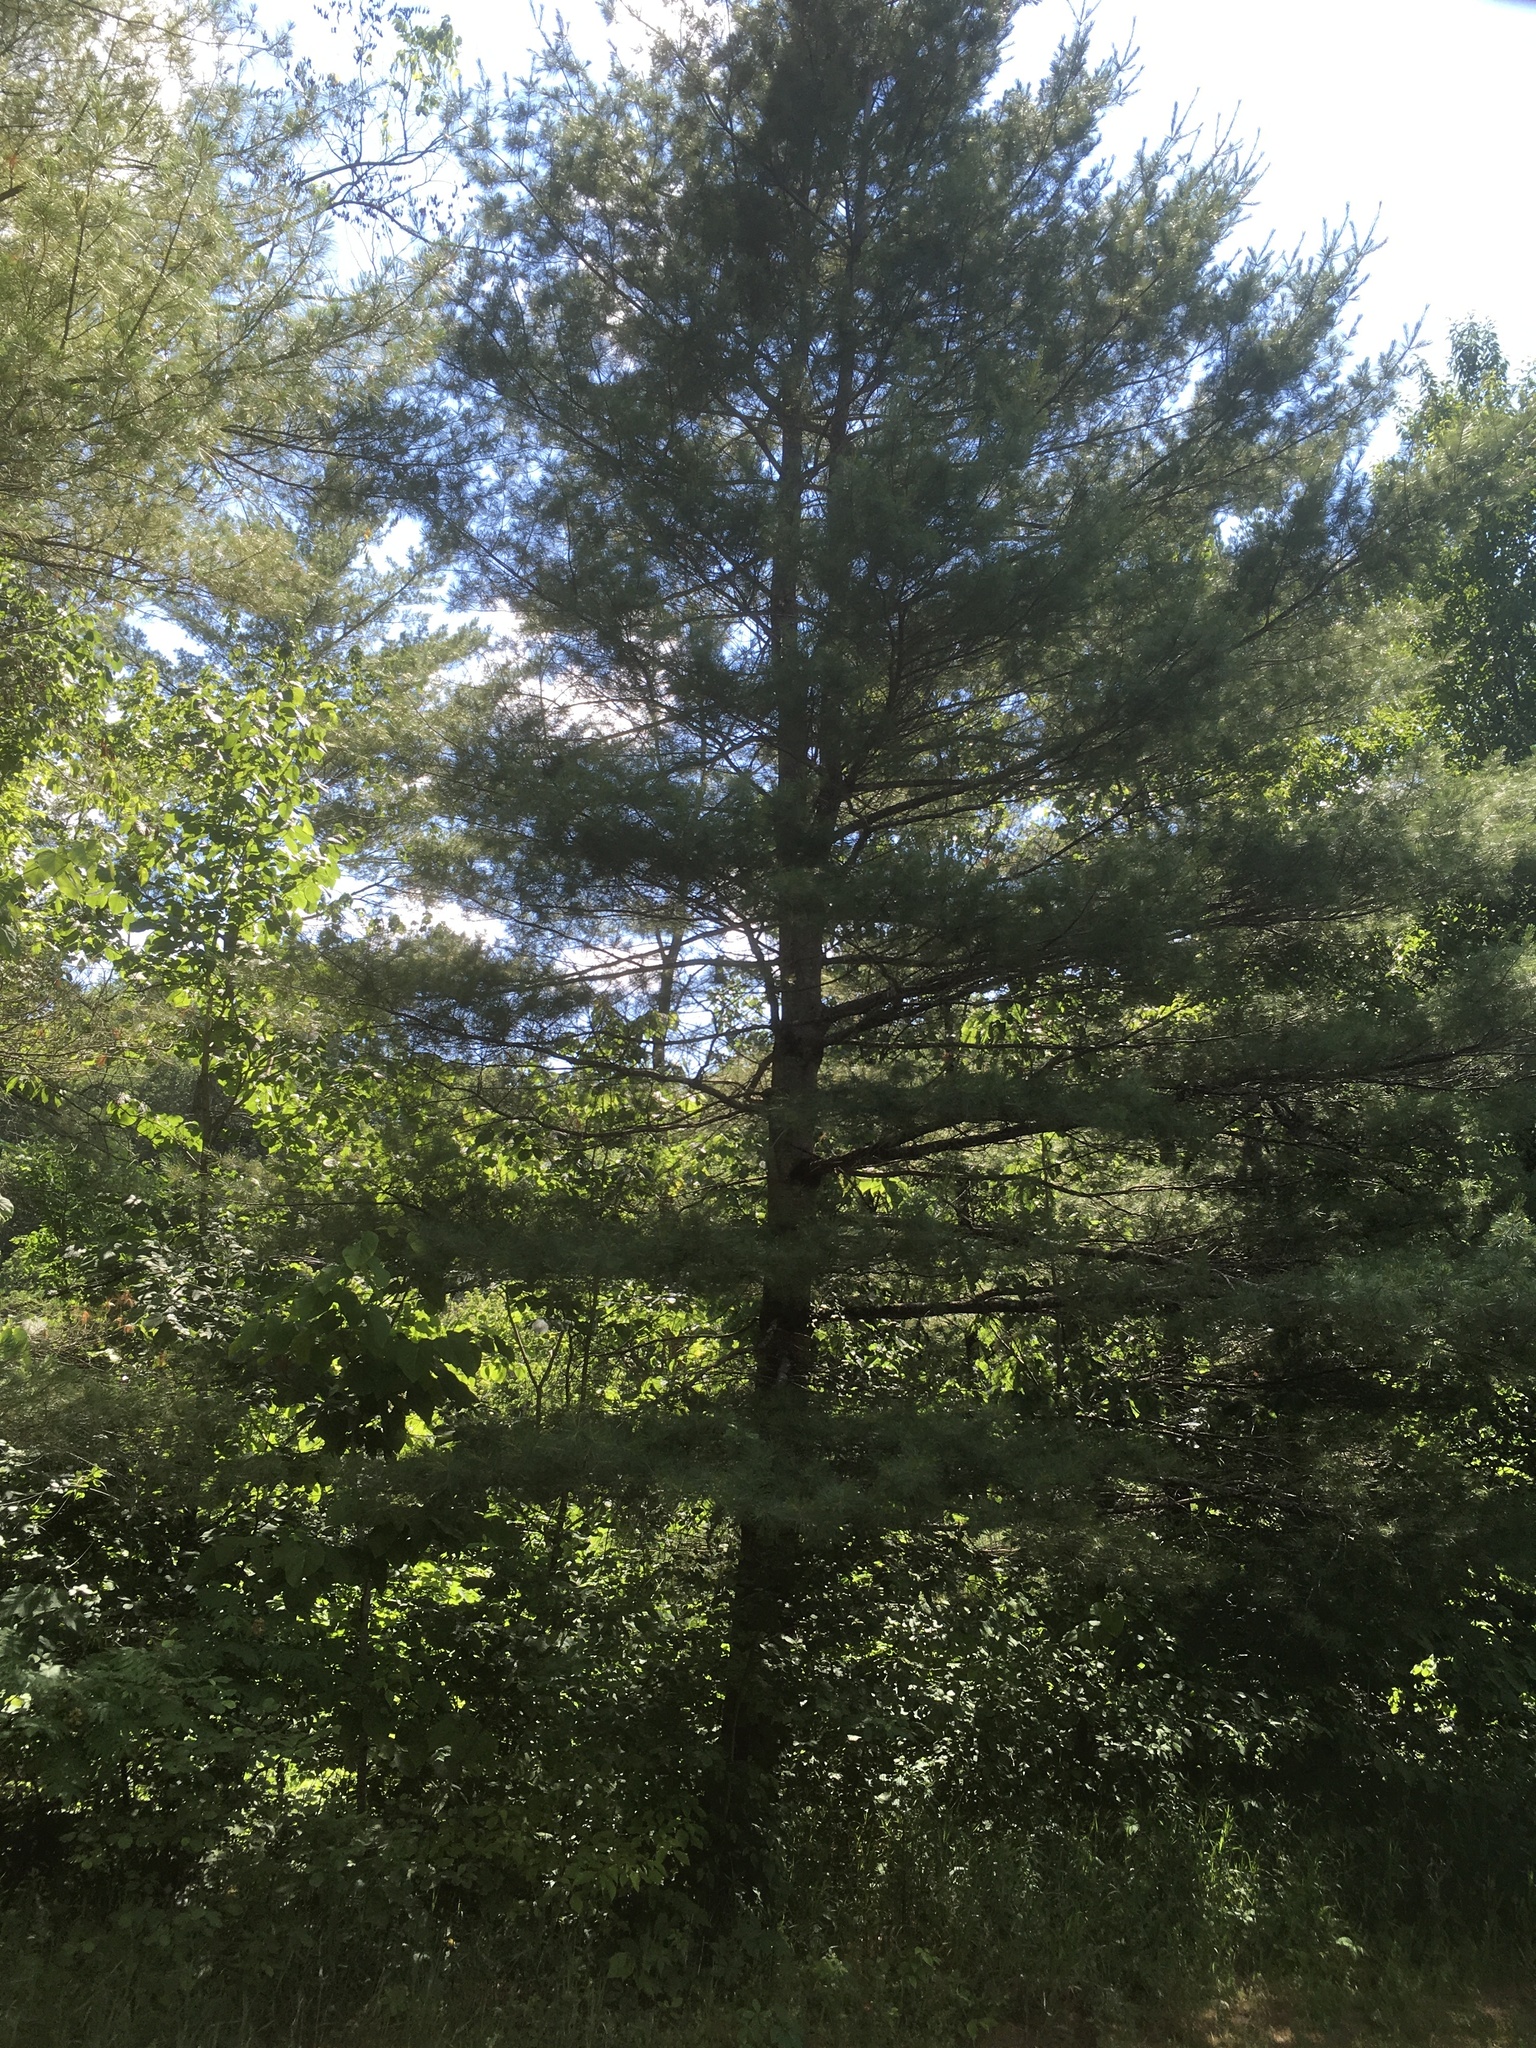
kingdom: Plantae
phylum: Tracheophyta
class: Pinopsida
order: Pinales
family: Pinaceae
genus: Pinus
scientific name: Pinus strobus
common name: Weymouth pine
